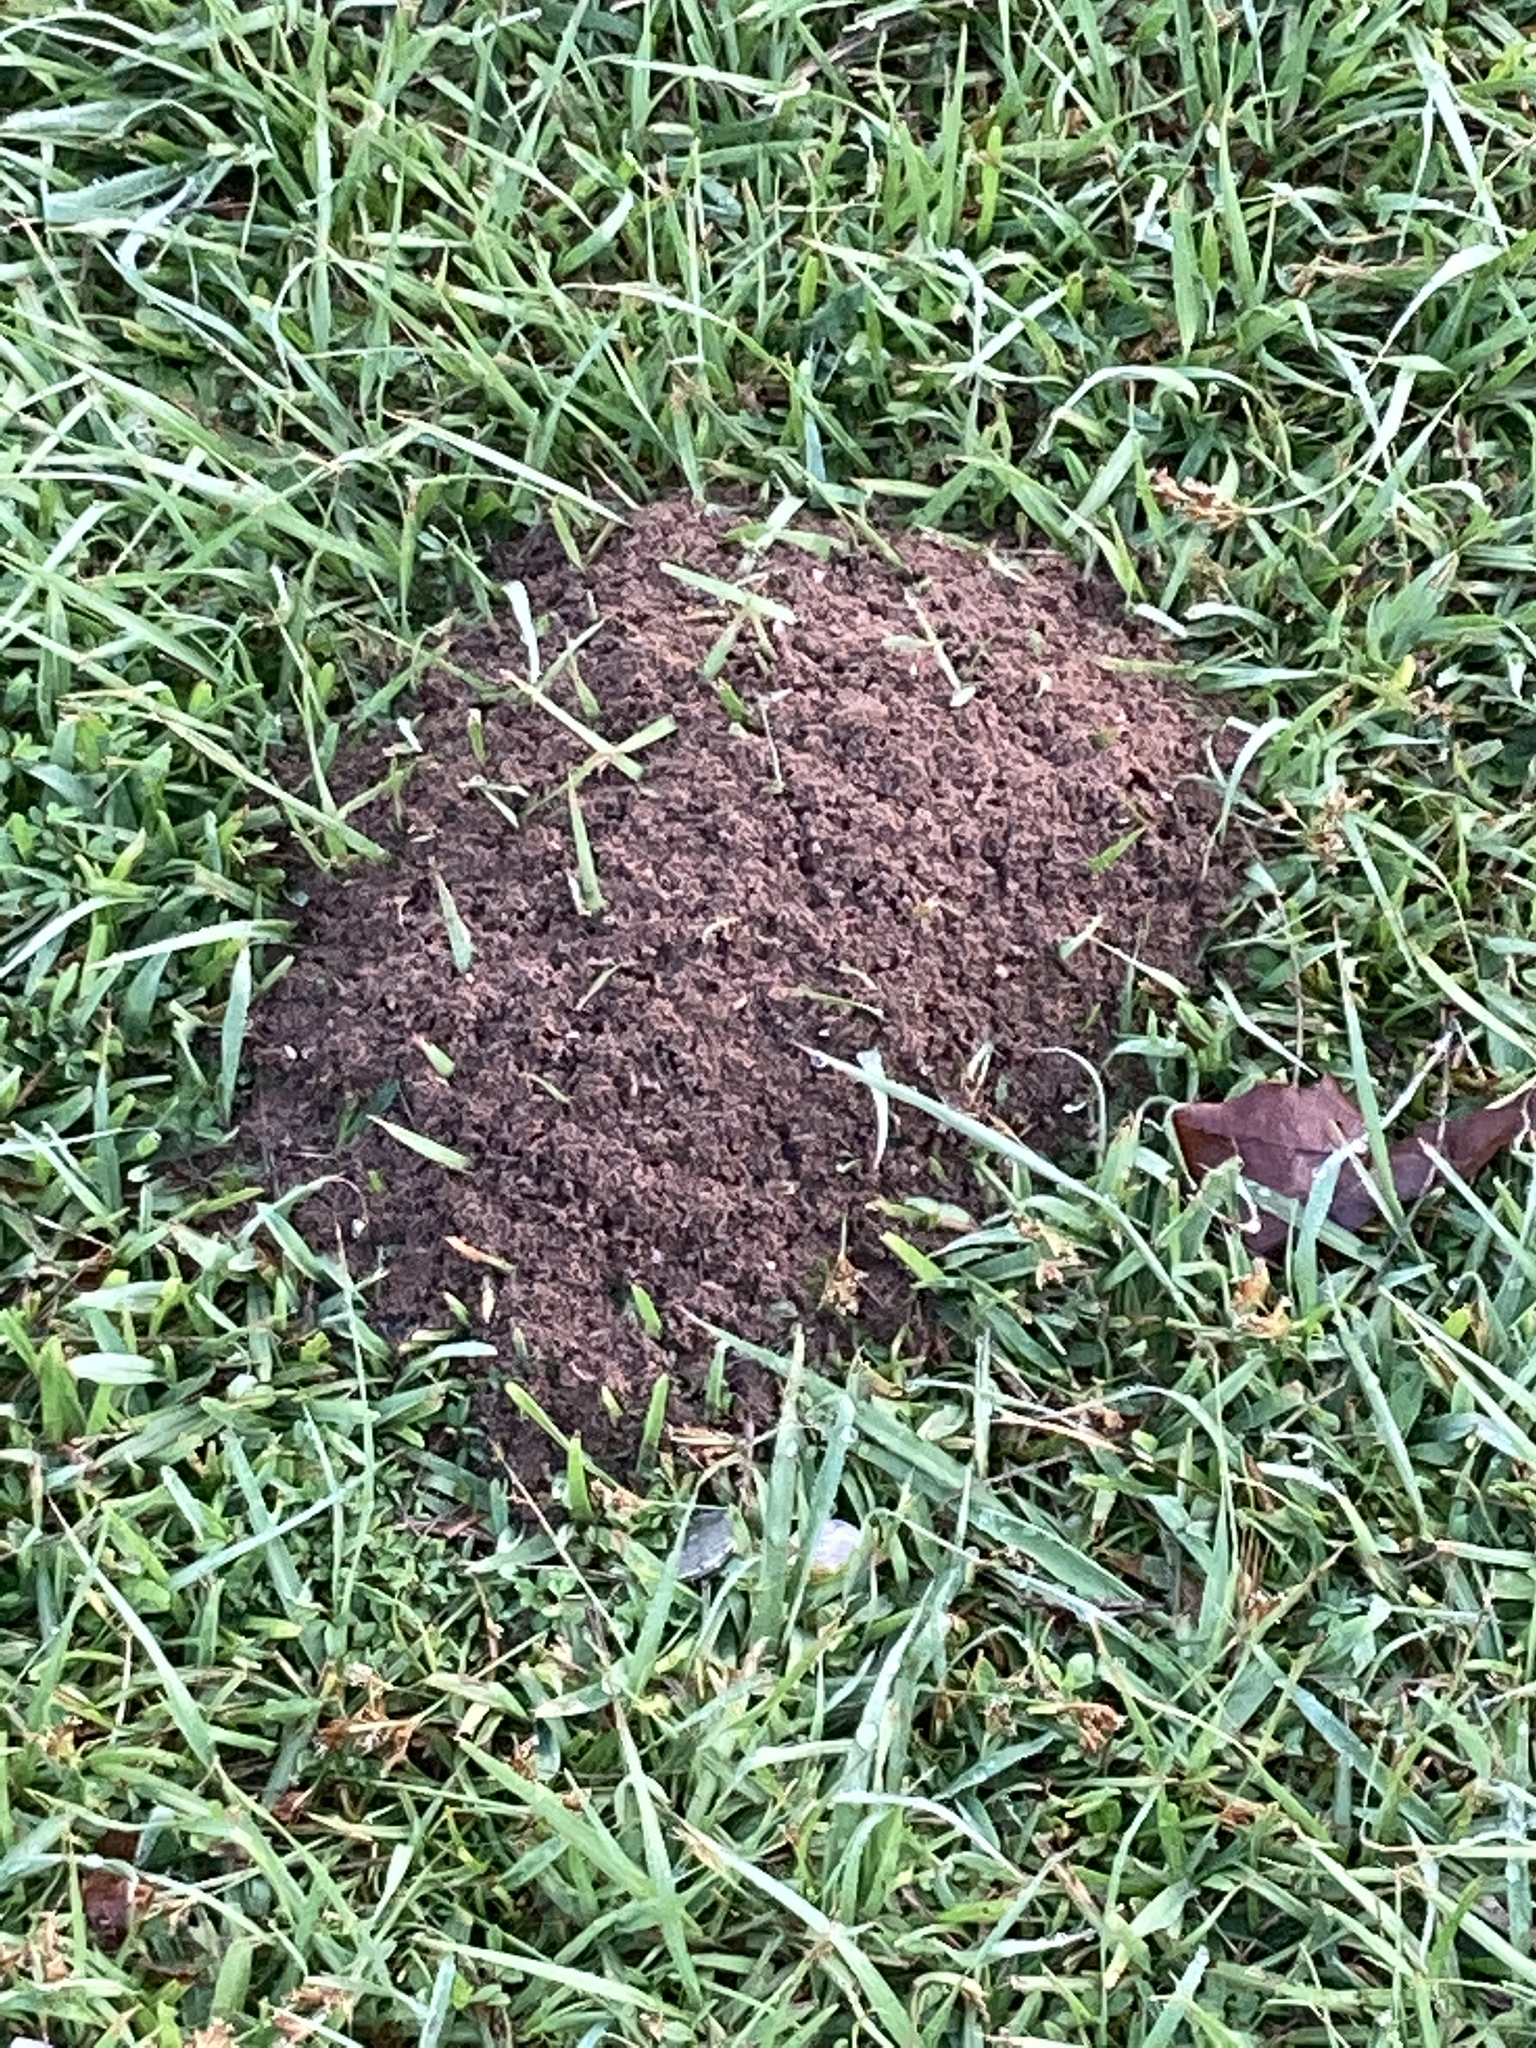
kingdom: Animalia
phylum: Arthropoda
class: Insecta
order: Hymenoptera
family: Formicidae
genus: Solenopsis
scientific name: Solenopsis invicta
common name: Red imported fire ant
